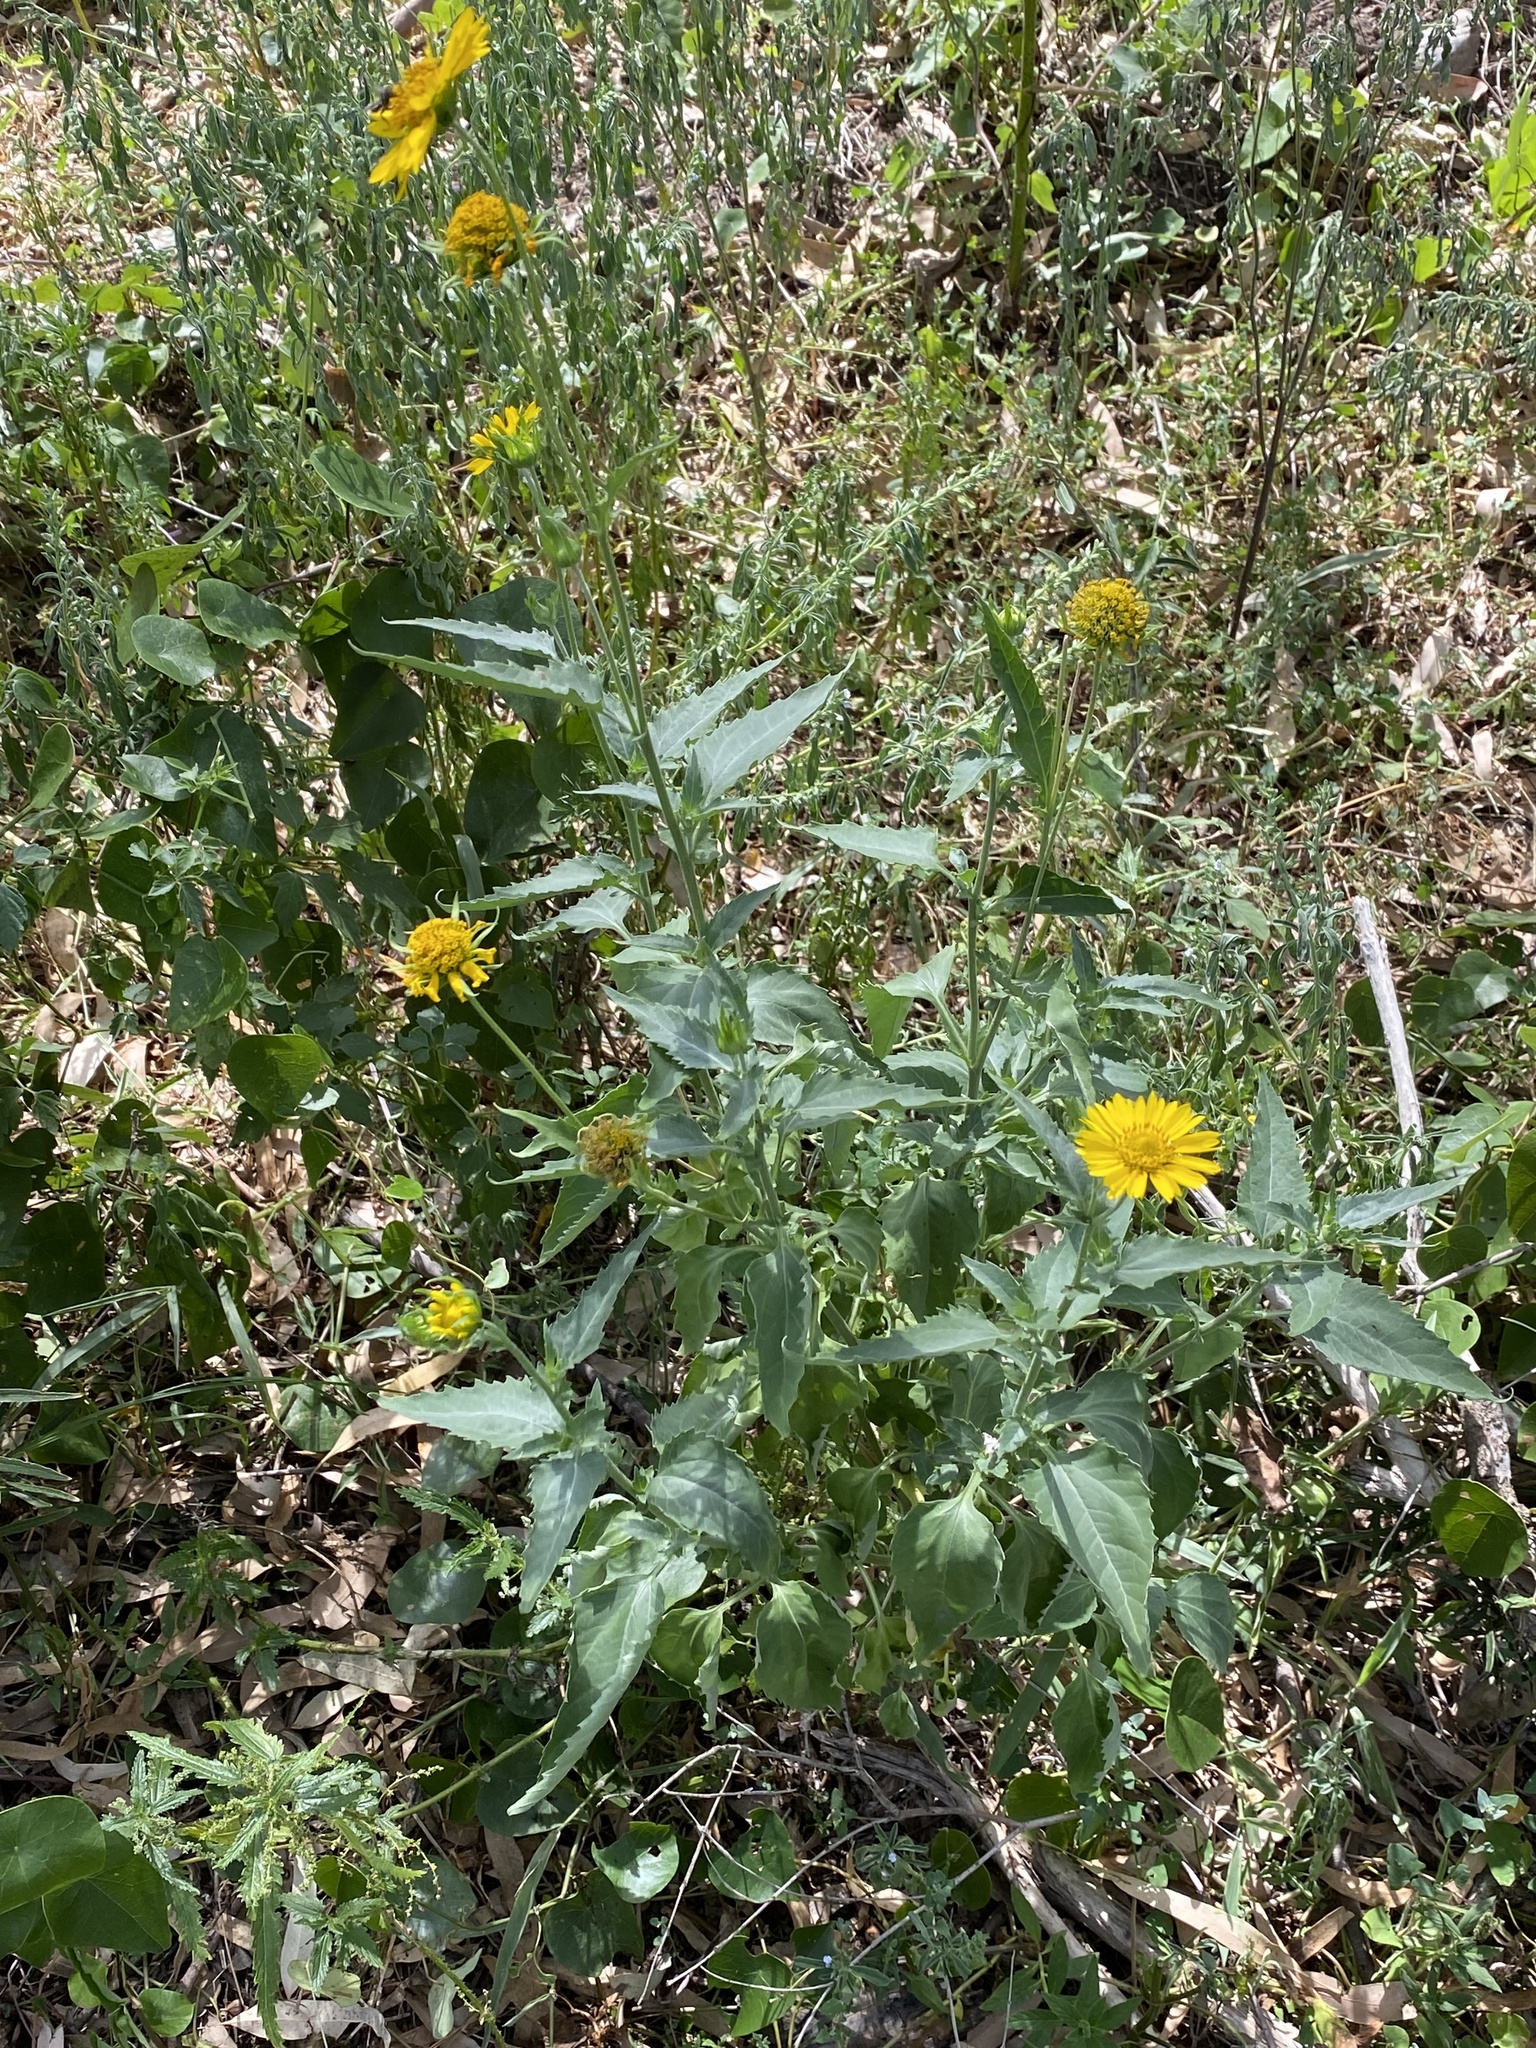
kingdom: Plantae
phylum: Tracheophyta
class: Magnoliopsida
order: Asterales
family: Asteraceae
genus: Verbesina
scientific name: Verbesina encelioides
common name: Golden crownbeard
